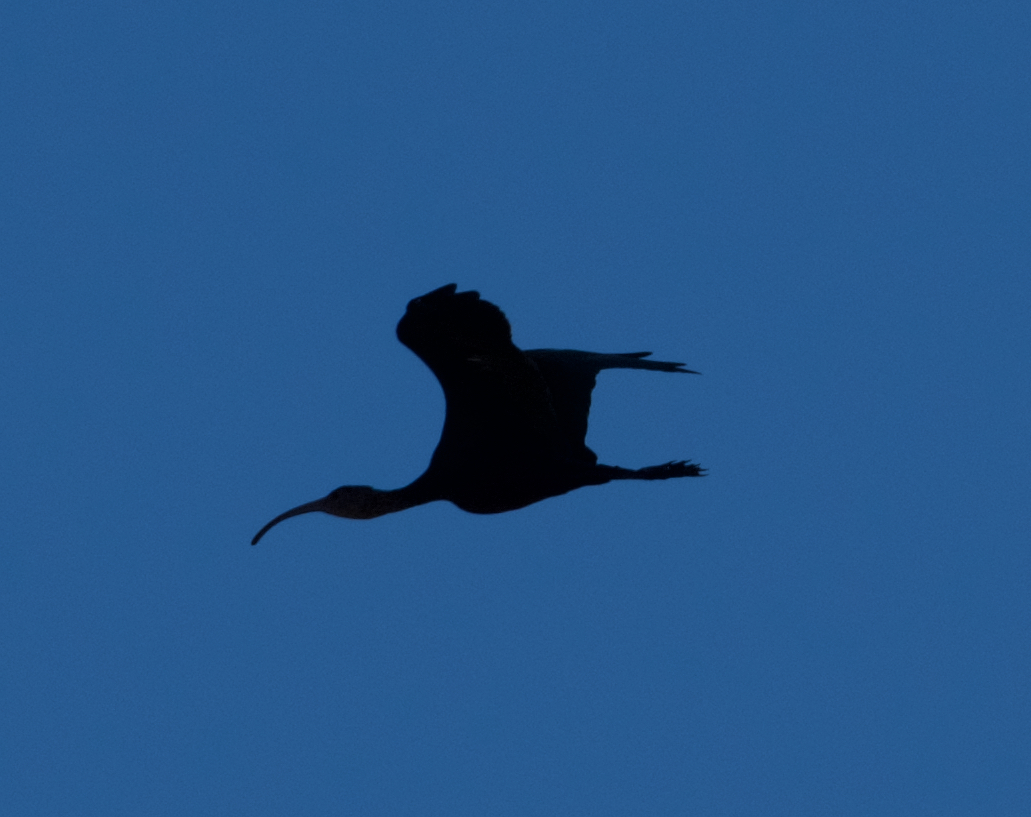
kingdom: Animalia
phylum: Chordata
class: Aves
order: Pelecaniformes
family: Threskiornithidae
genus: Plegadis
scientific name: Plegadis chihi
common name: White-faced ibis
